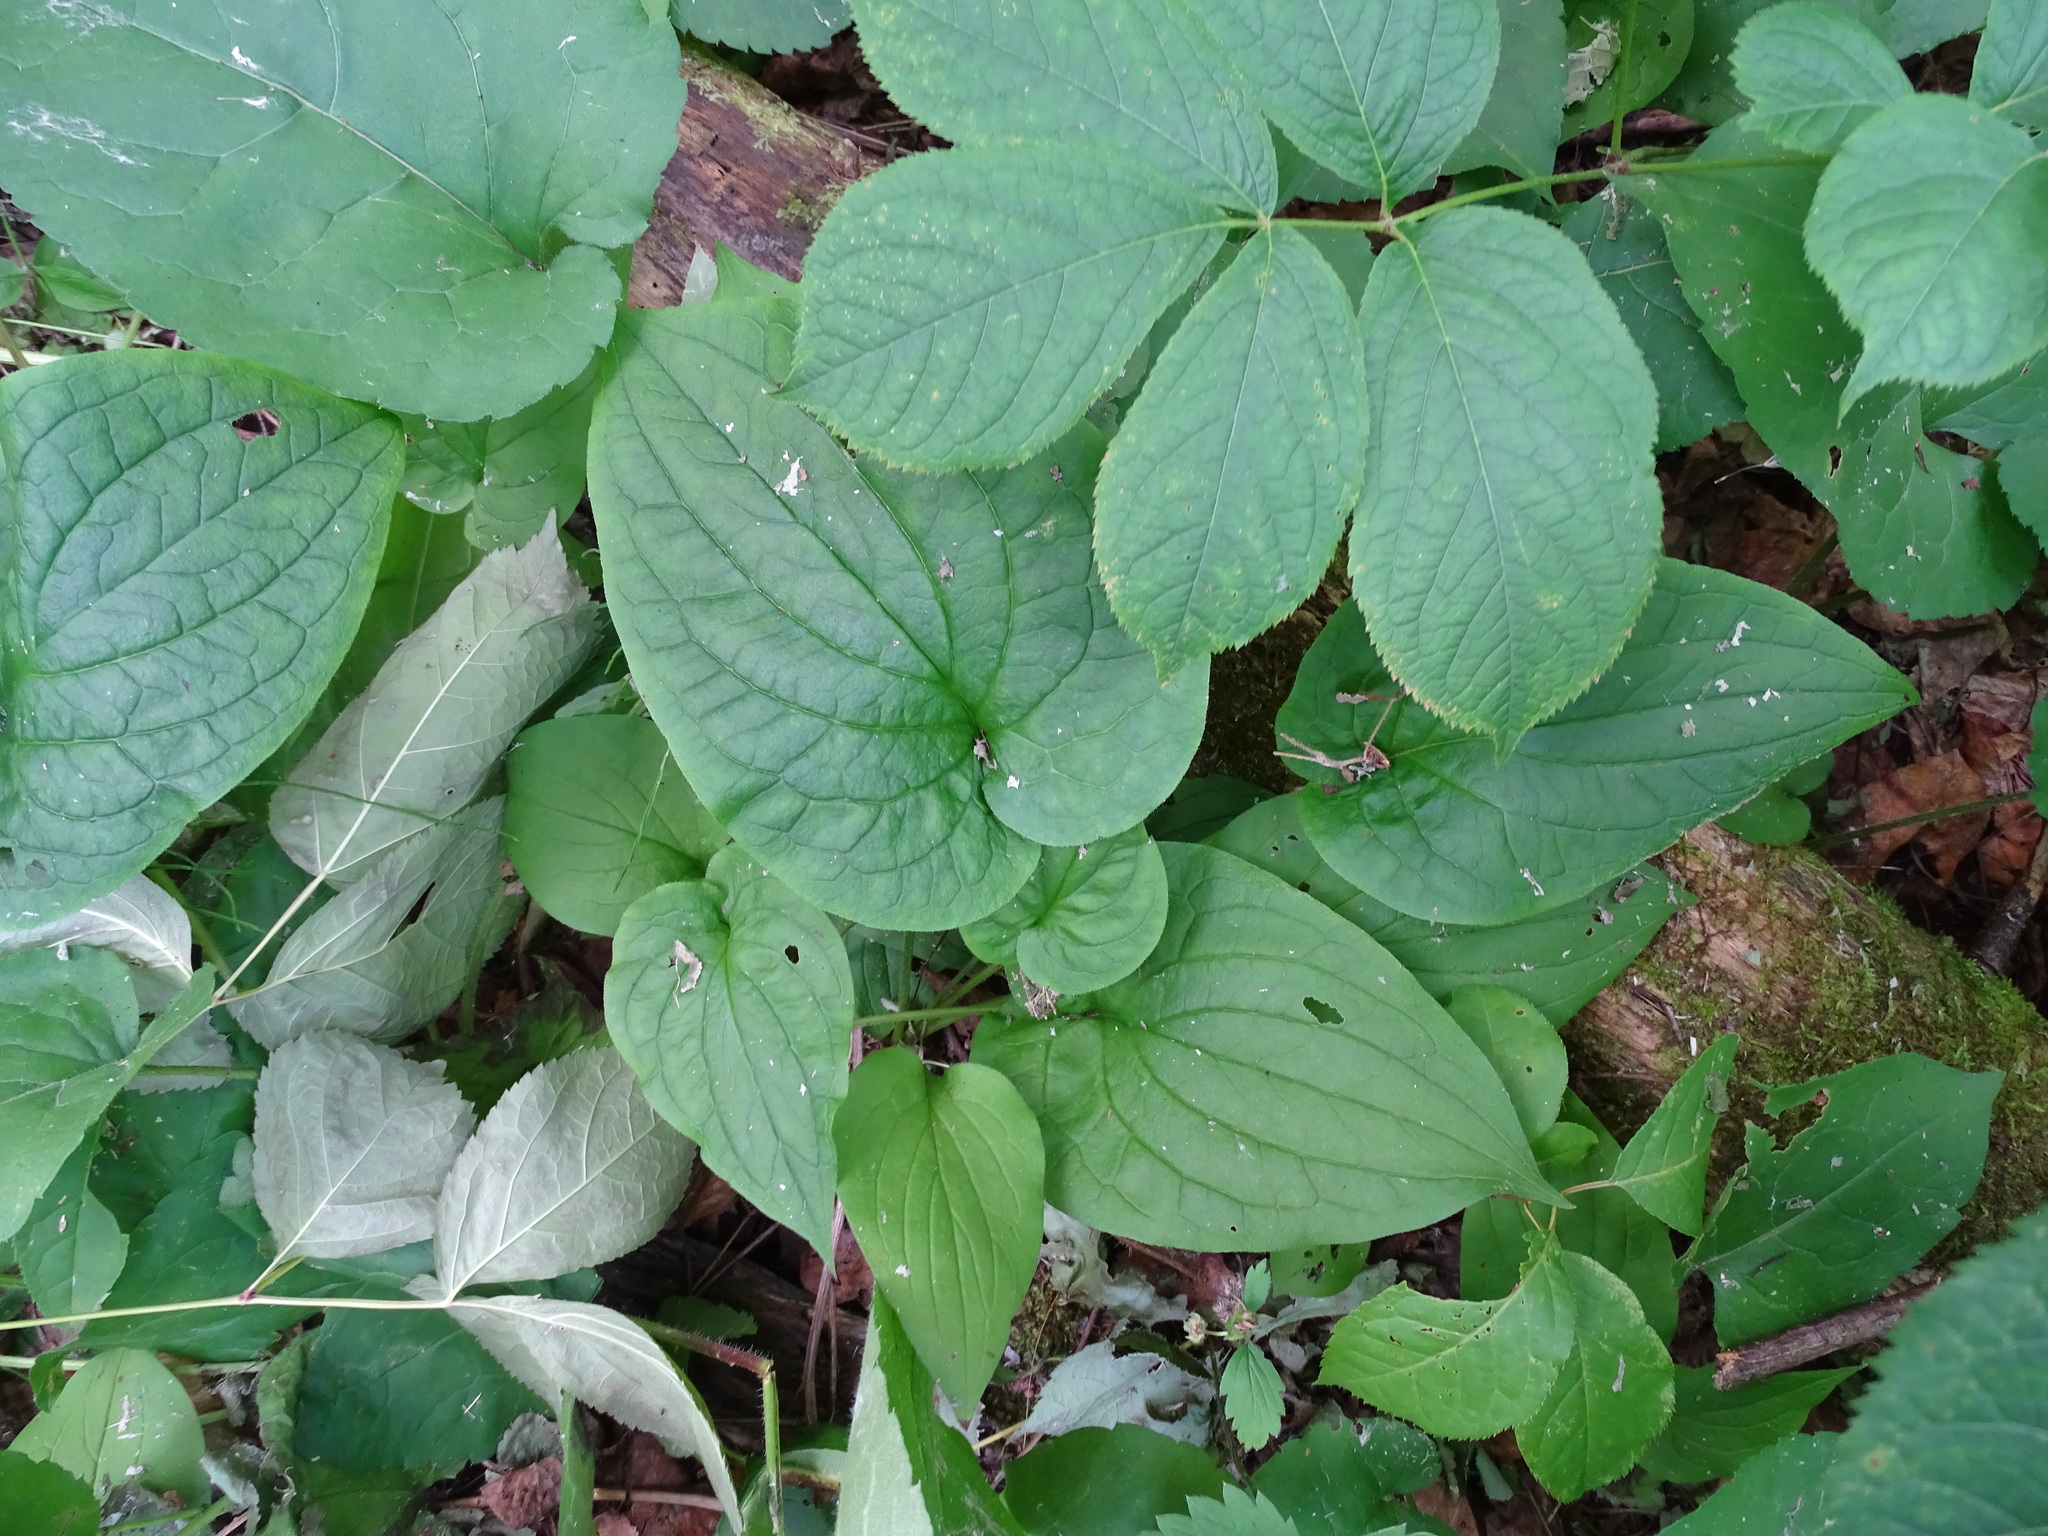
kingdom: Plantae
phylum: Tracheophyta
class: Magnoliopsida
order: Boraginales
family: Boraginaceae
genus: Mertensia
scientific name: Mertensia paniculata
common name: Panicled bluebells
